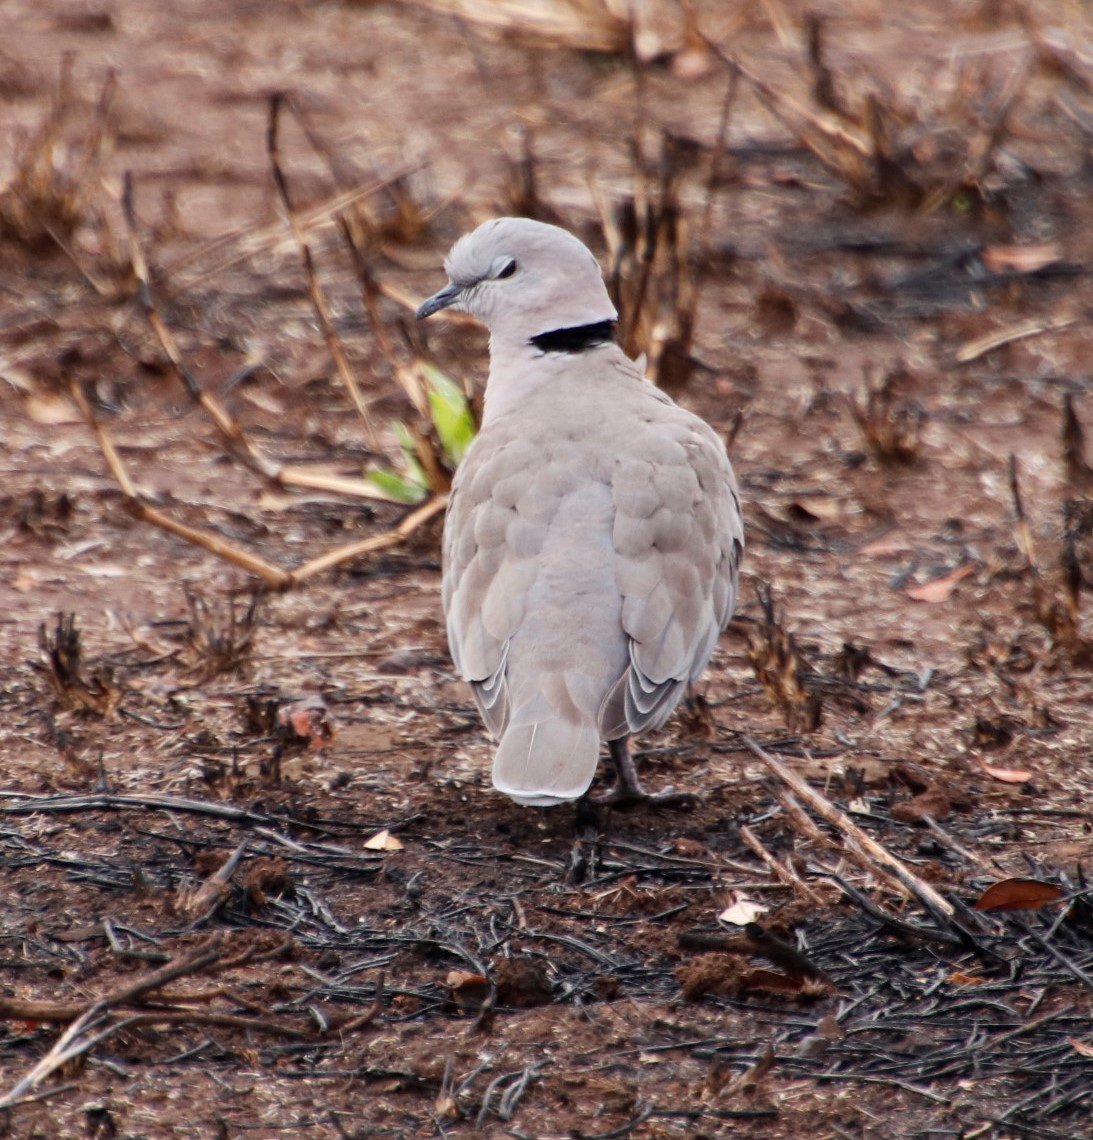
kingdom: Animalia
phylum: Chordata
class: Aves
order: Columbiformes
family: Columbidae
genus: Streptopelia
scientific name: Streptopelia capicola
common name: Ring-necked dove
